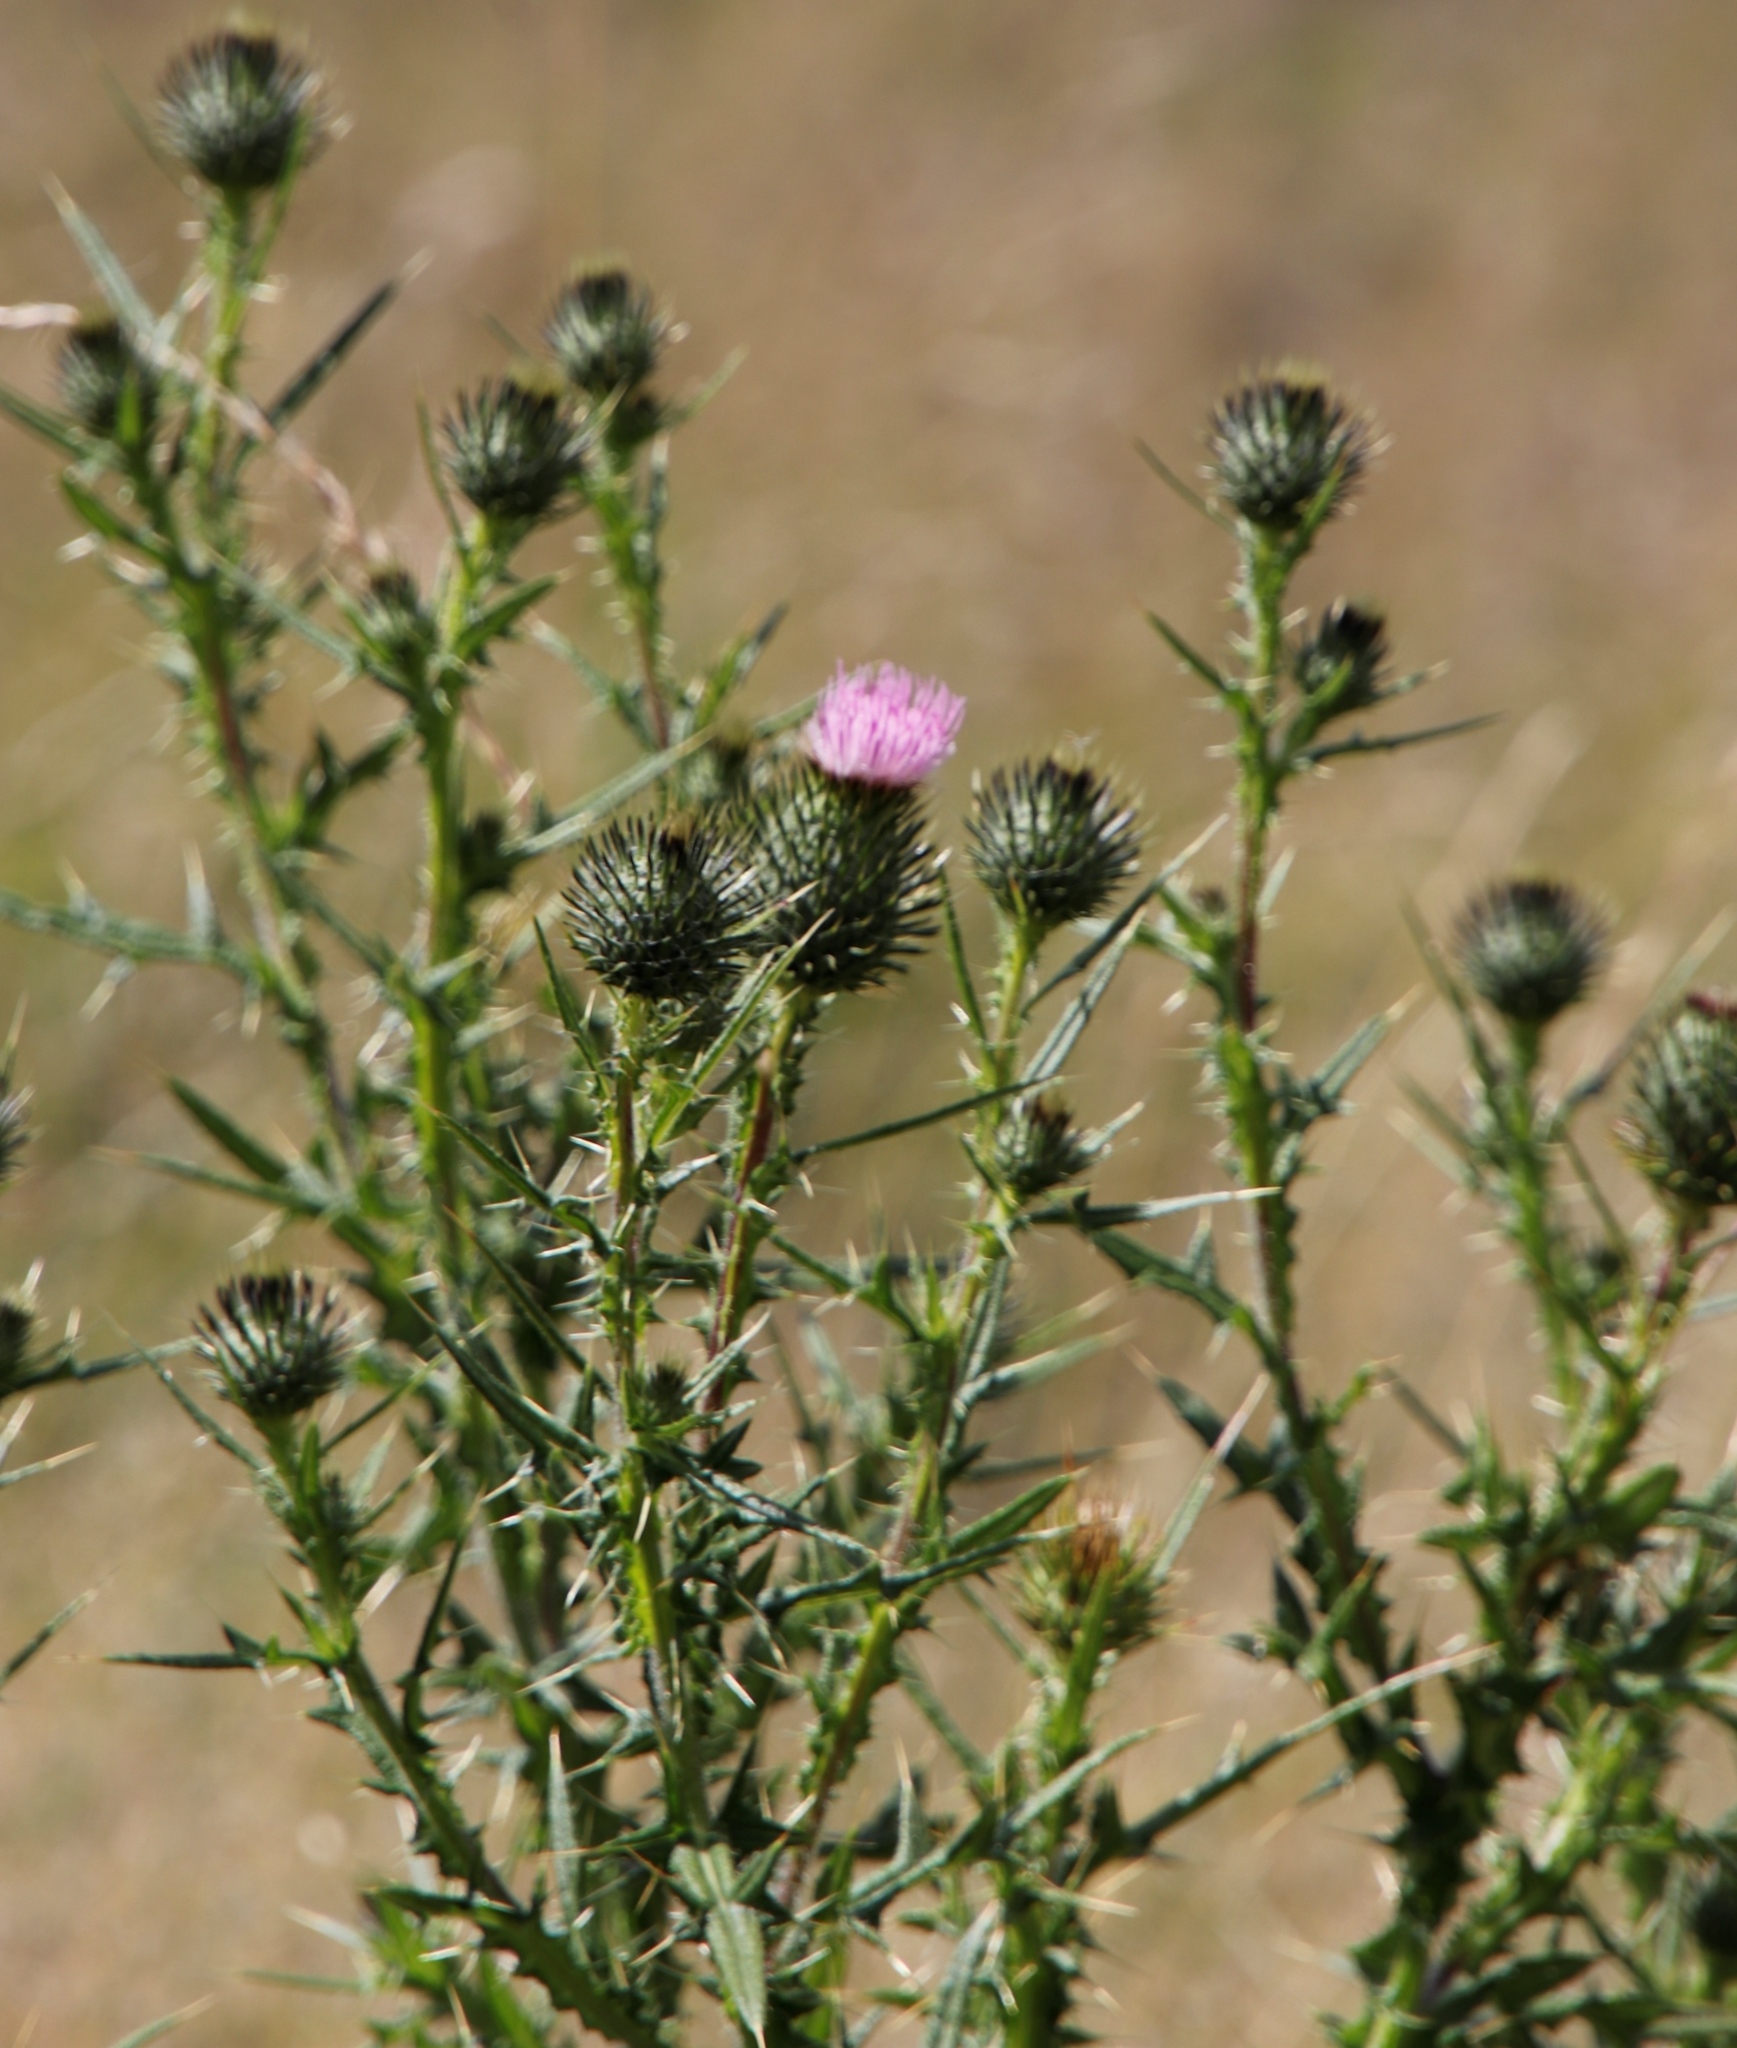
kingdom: Plantae
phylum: Tracheophyta
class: Magnoliopsida
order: Asterales
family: Asteraceae
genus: Cirsium
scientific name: Cirsium vulgare
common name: Bull thistle
